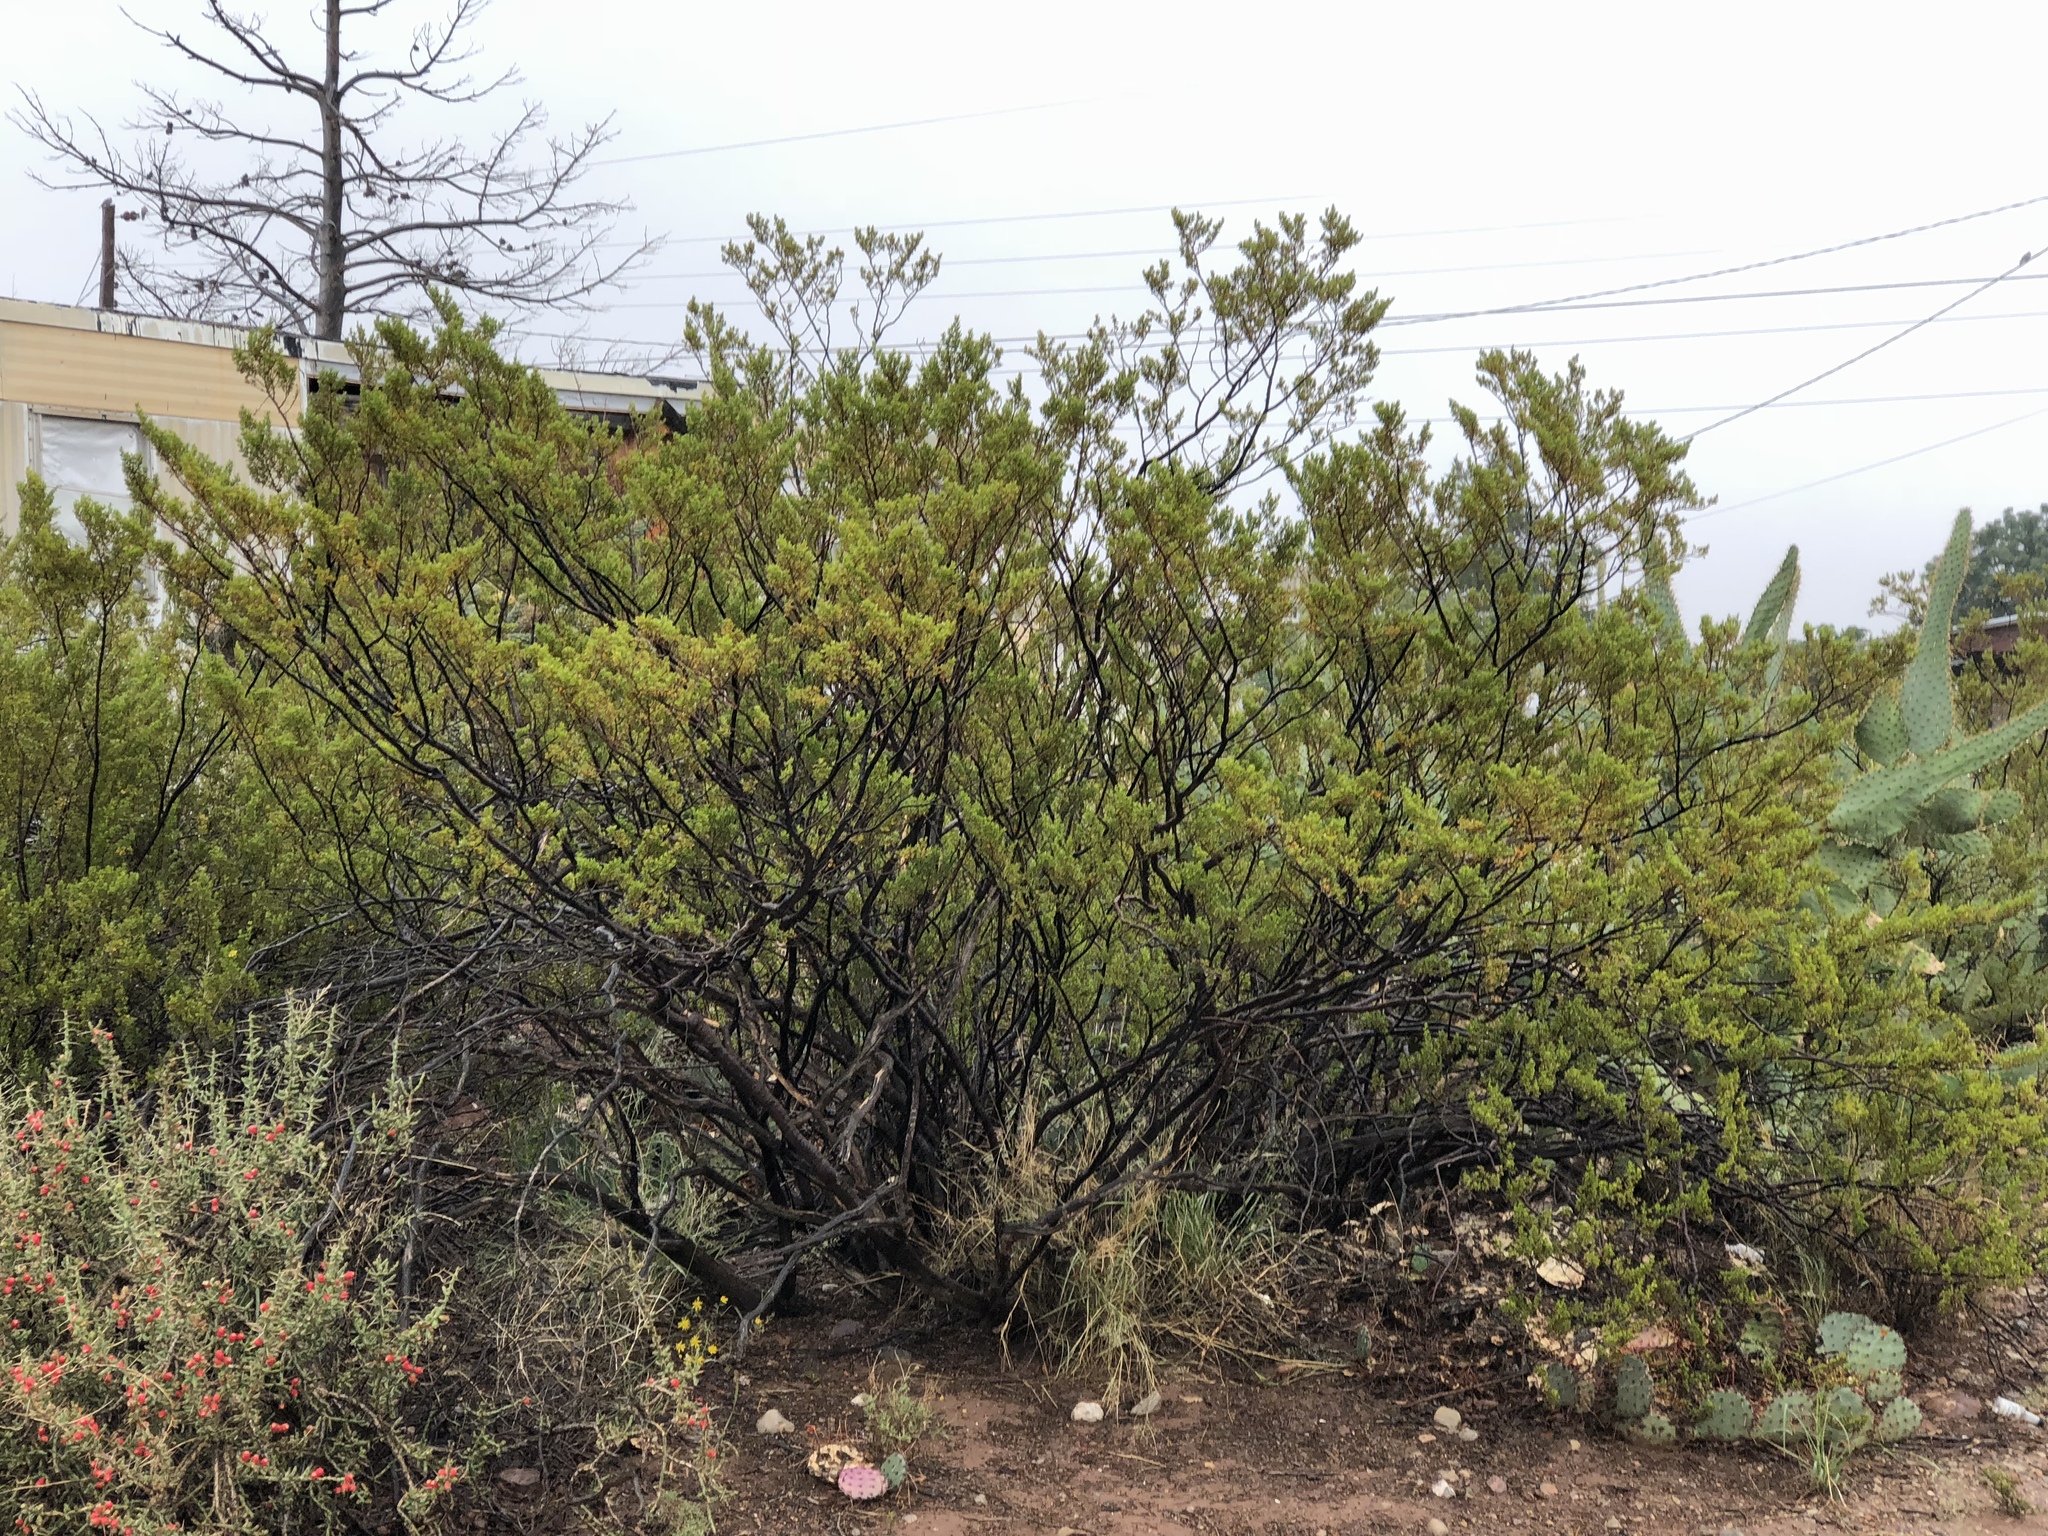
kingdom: Plantae
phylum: Tracheophyta
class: Magnoliopsida
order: Zygophyllales
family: Zygophyllaceae
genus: Larrea
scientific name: Larrea tridentata
